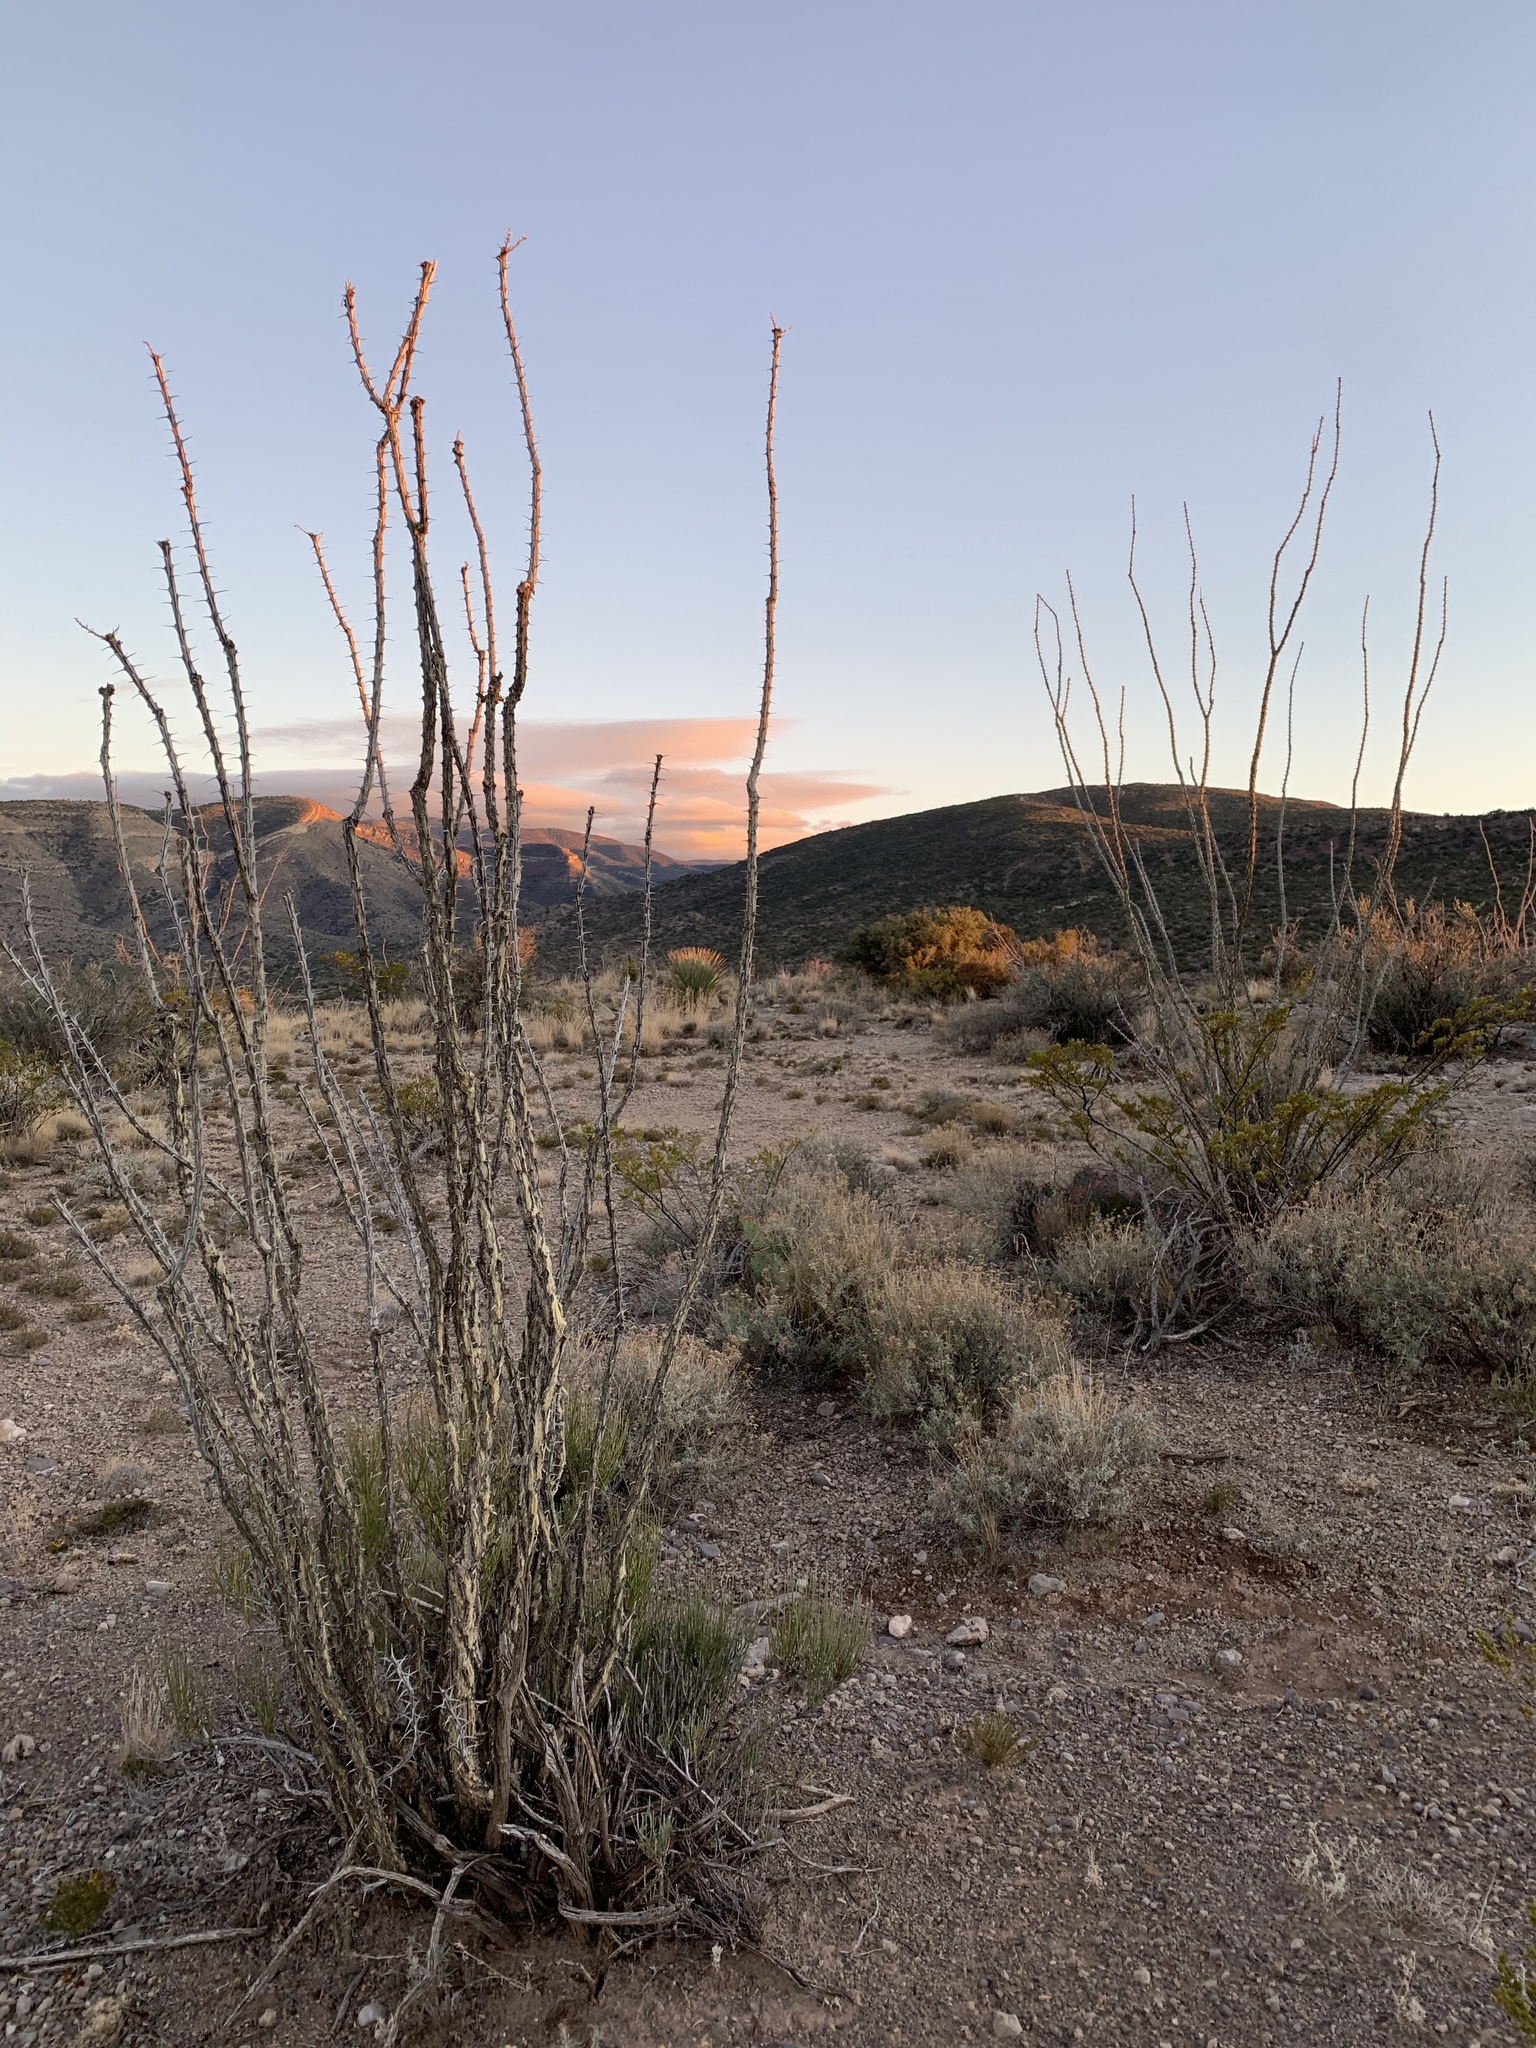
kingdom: Plantae
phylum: Tracheophyta
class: Magnoliopsida
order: Ericales
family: Fouquieriaceae
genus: Fouquieria
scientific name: Fouquieria splendens
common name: Vine-cactus
